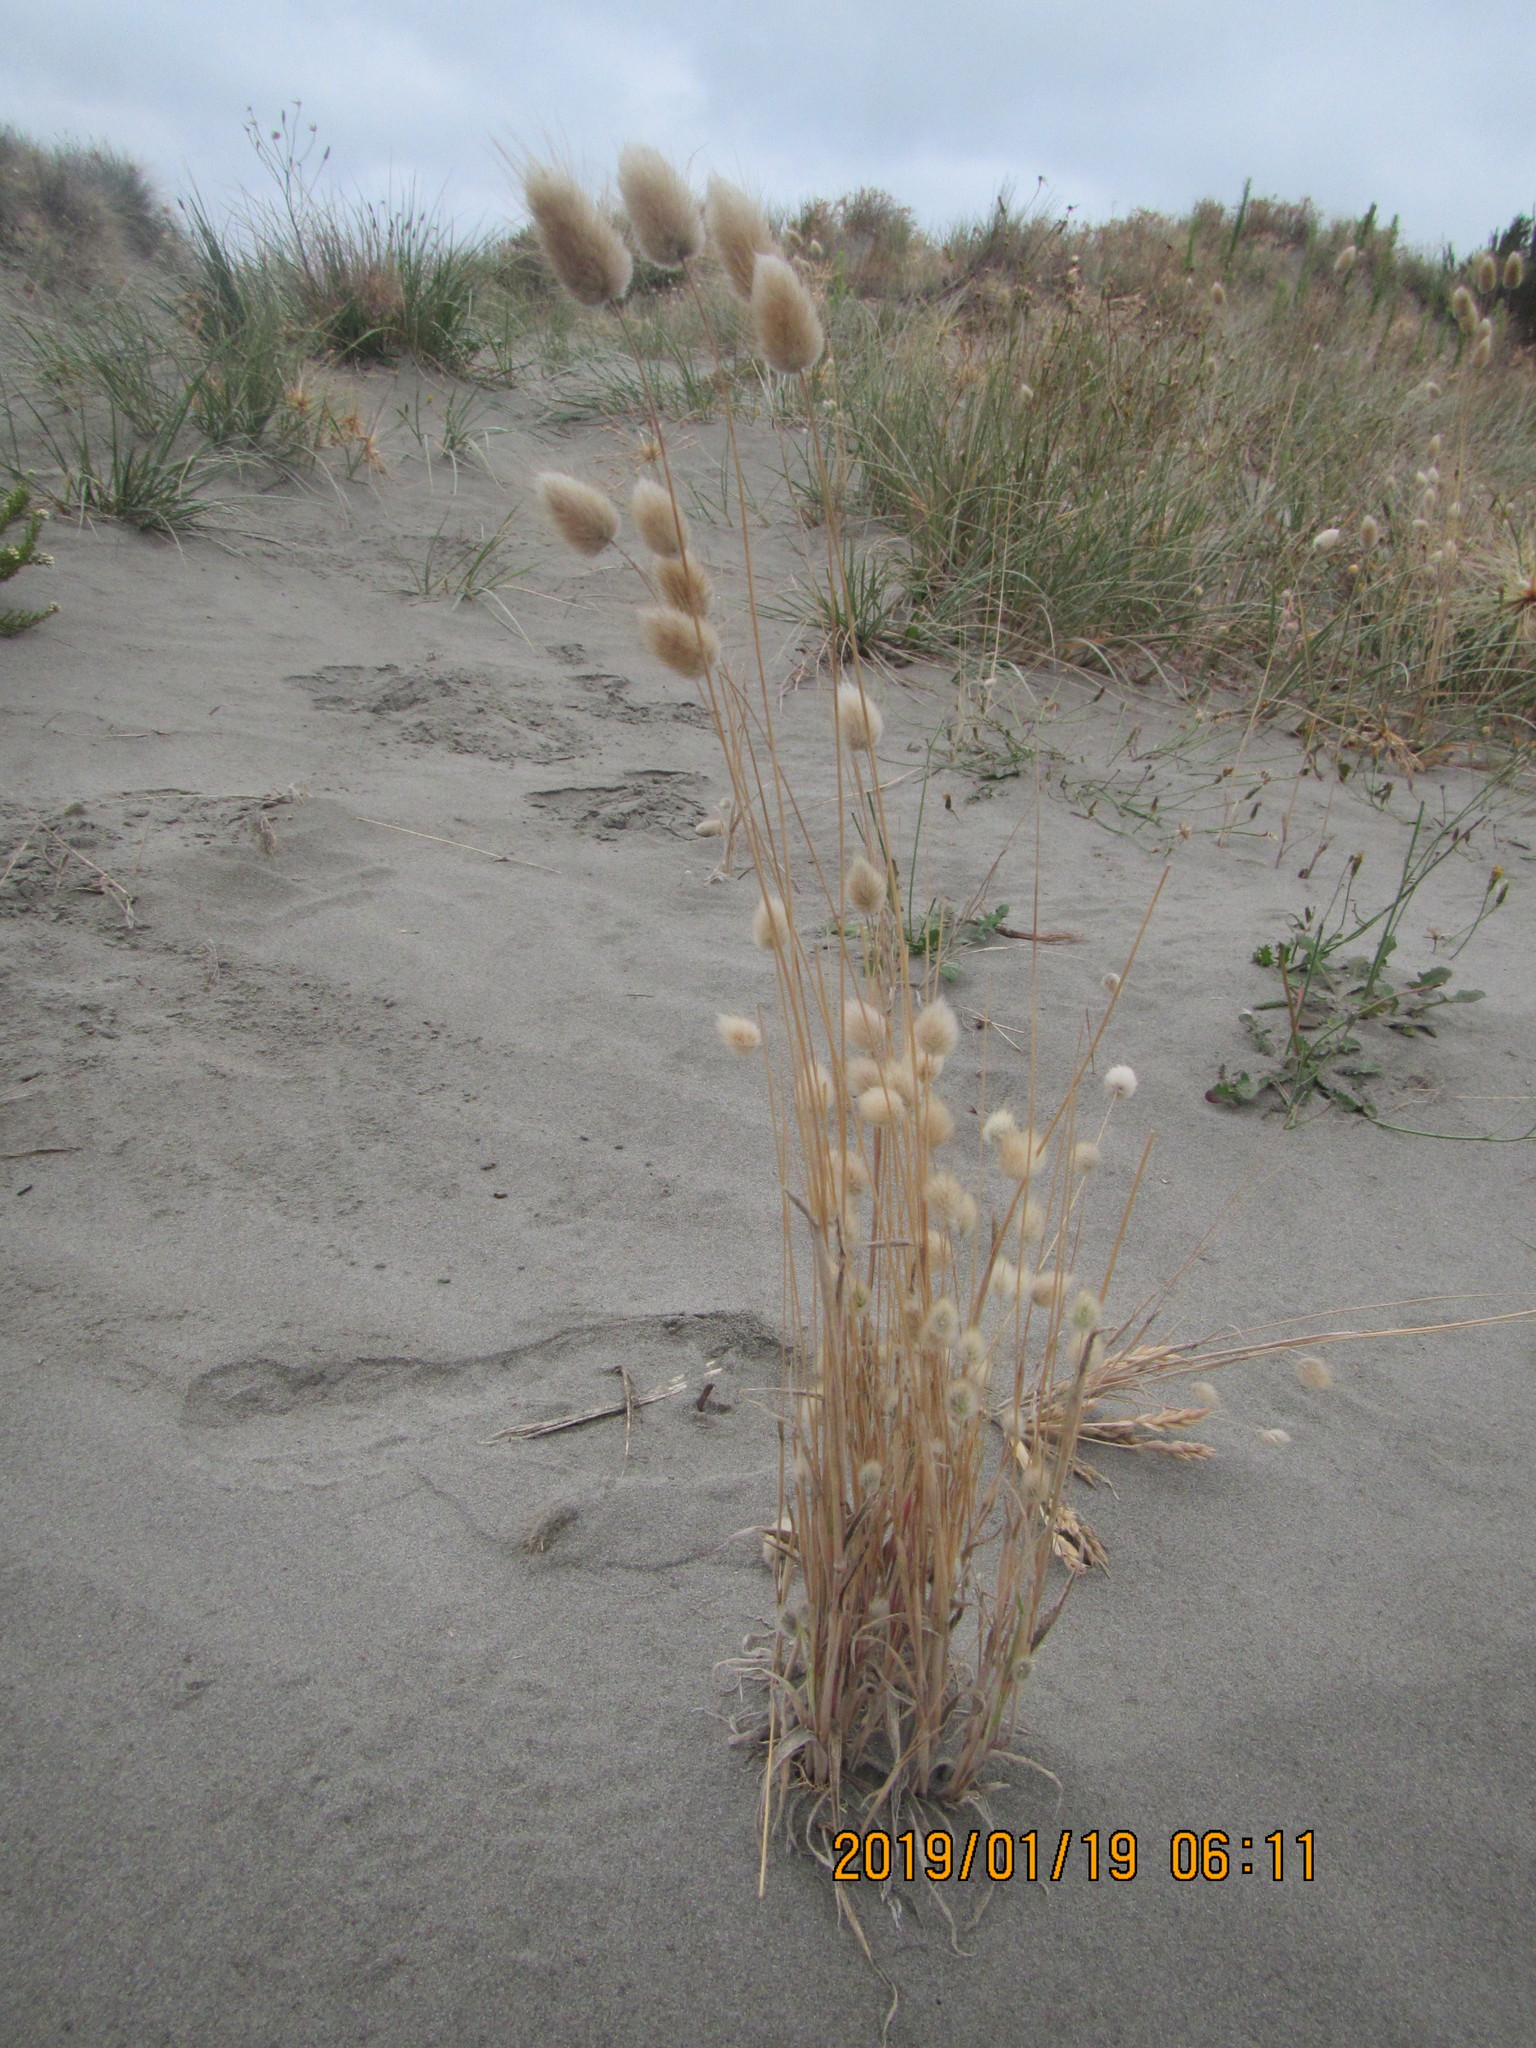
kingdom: Plantae
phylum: Tracheophyta
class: Liliopsida
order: Poales
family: Poaceae
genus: Lagurus
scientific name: Lagurus ovatus
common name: Hare's-tail
